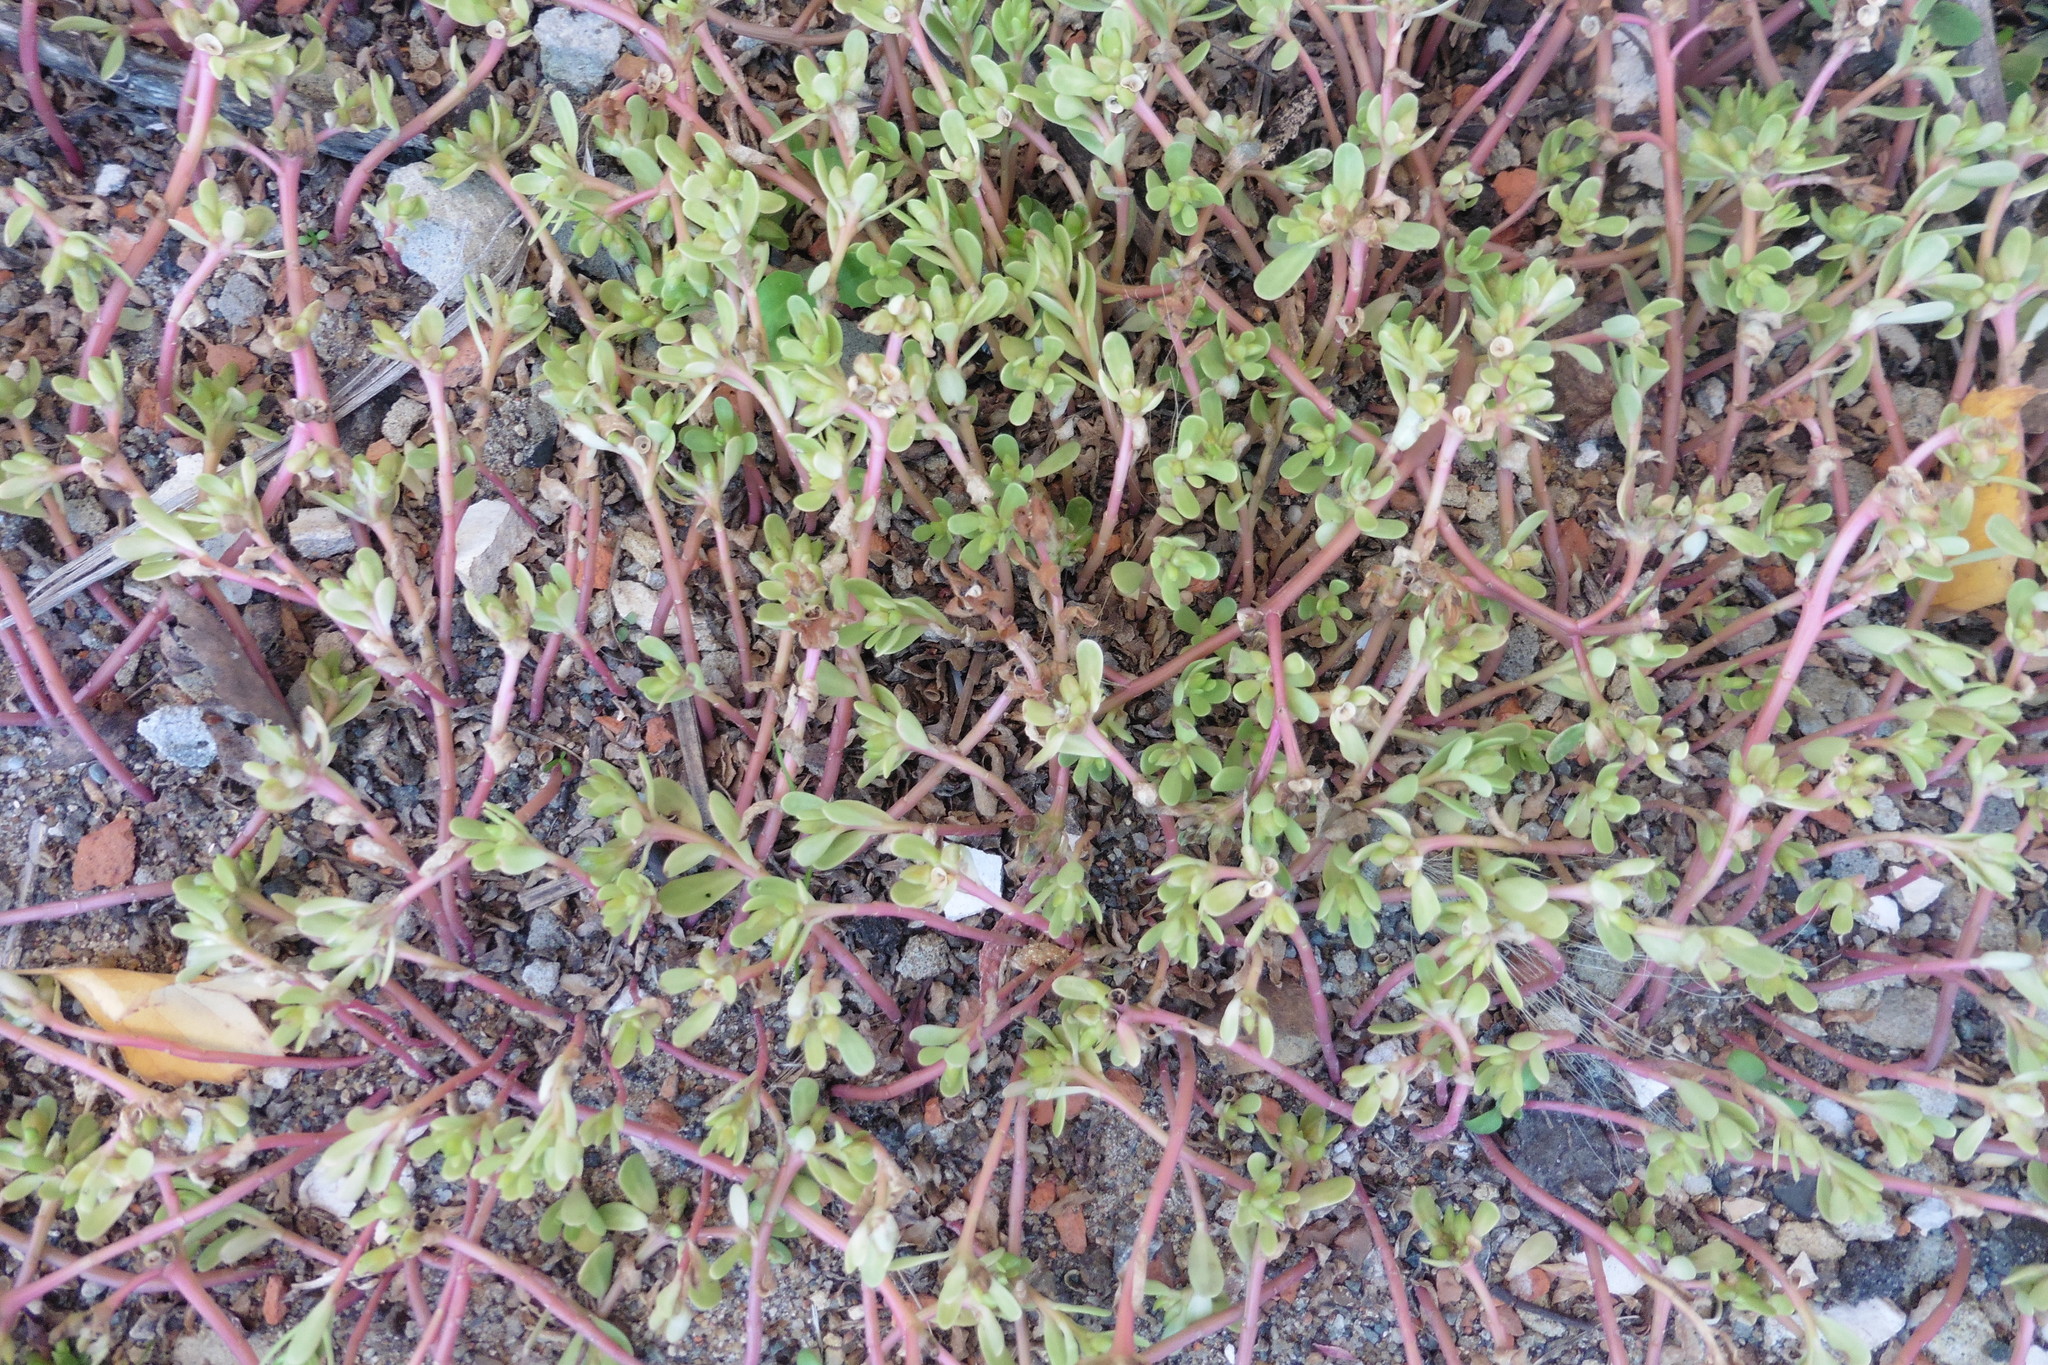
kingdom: Plantae
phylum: Tracheophyta
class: Magnoliopsida
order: Caryophyllales
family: Portulacaceae
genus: Portulaca
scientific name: Portulaca oleracea
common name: Common purslane
